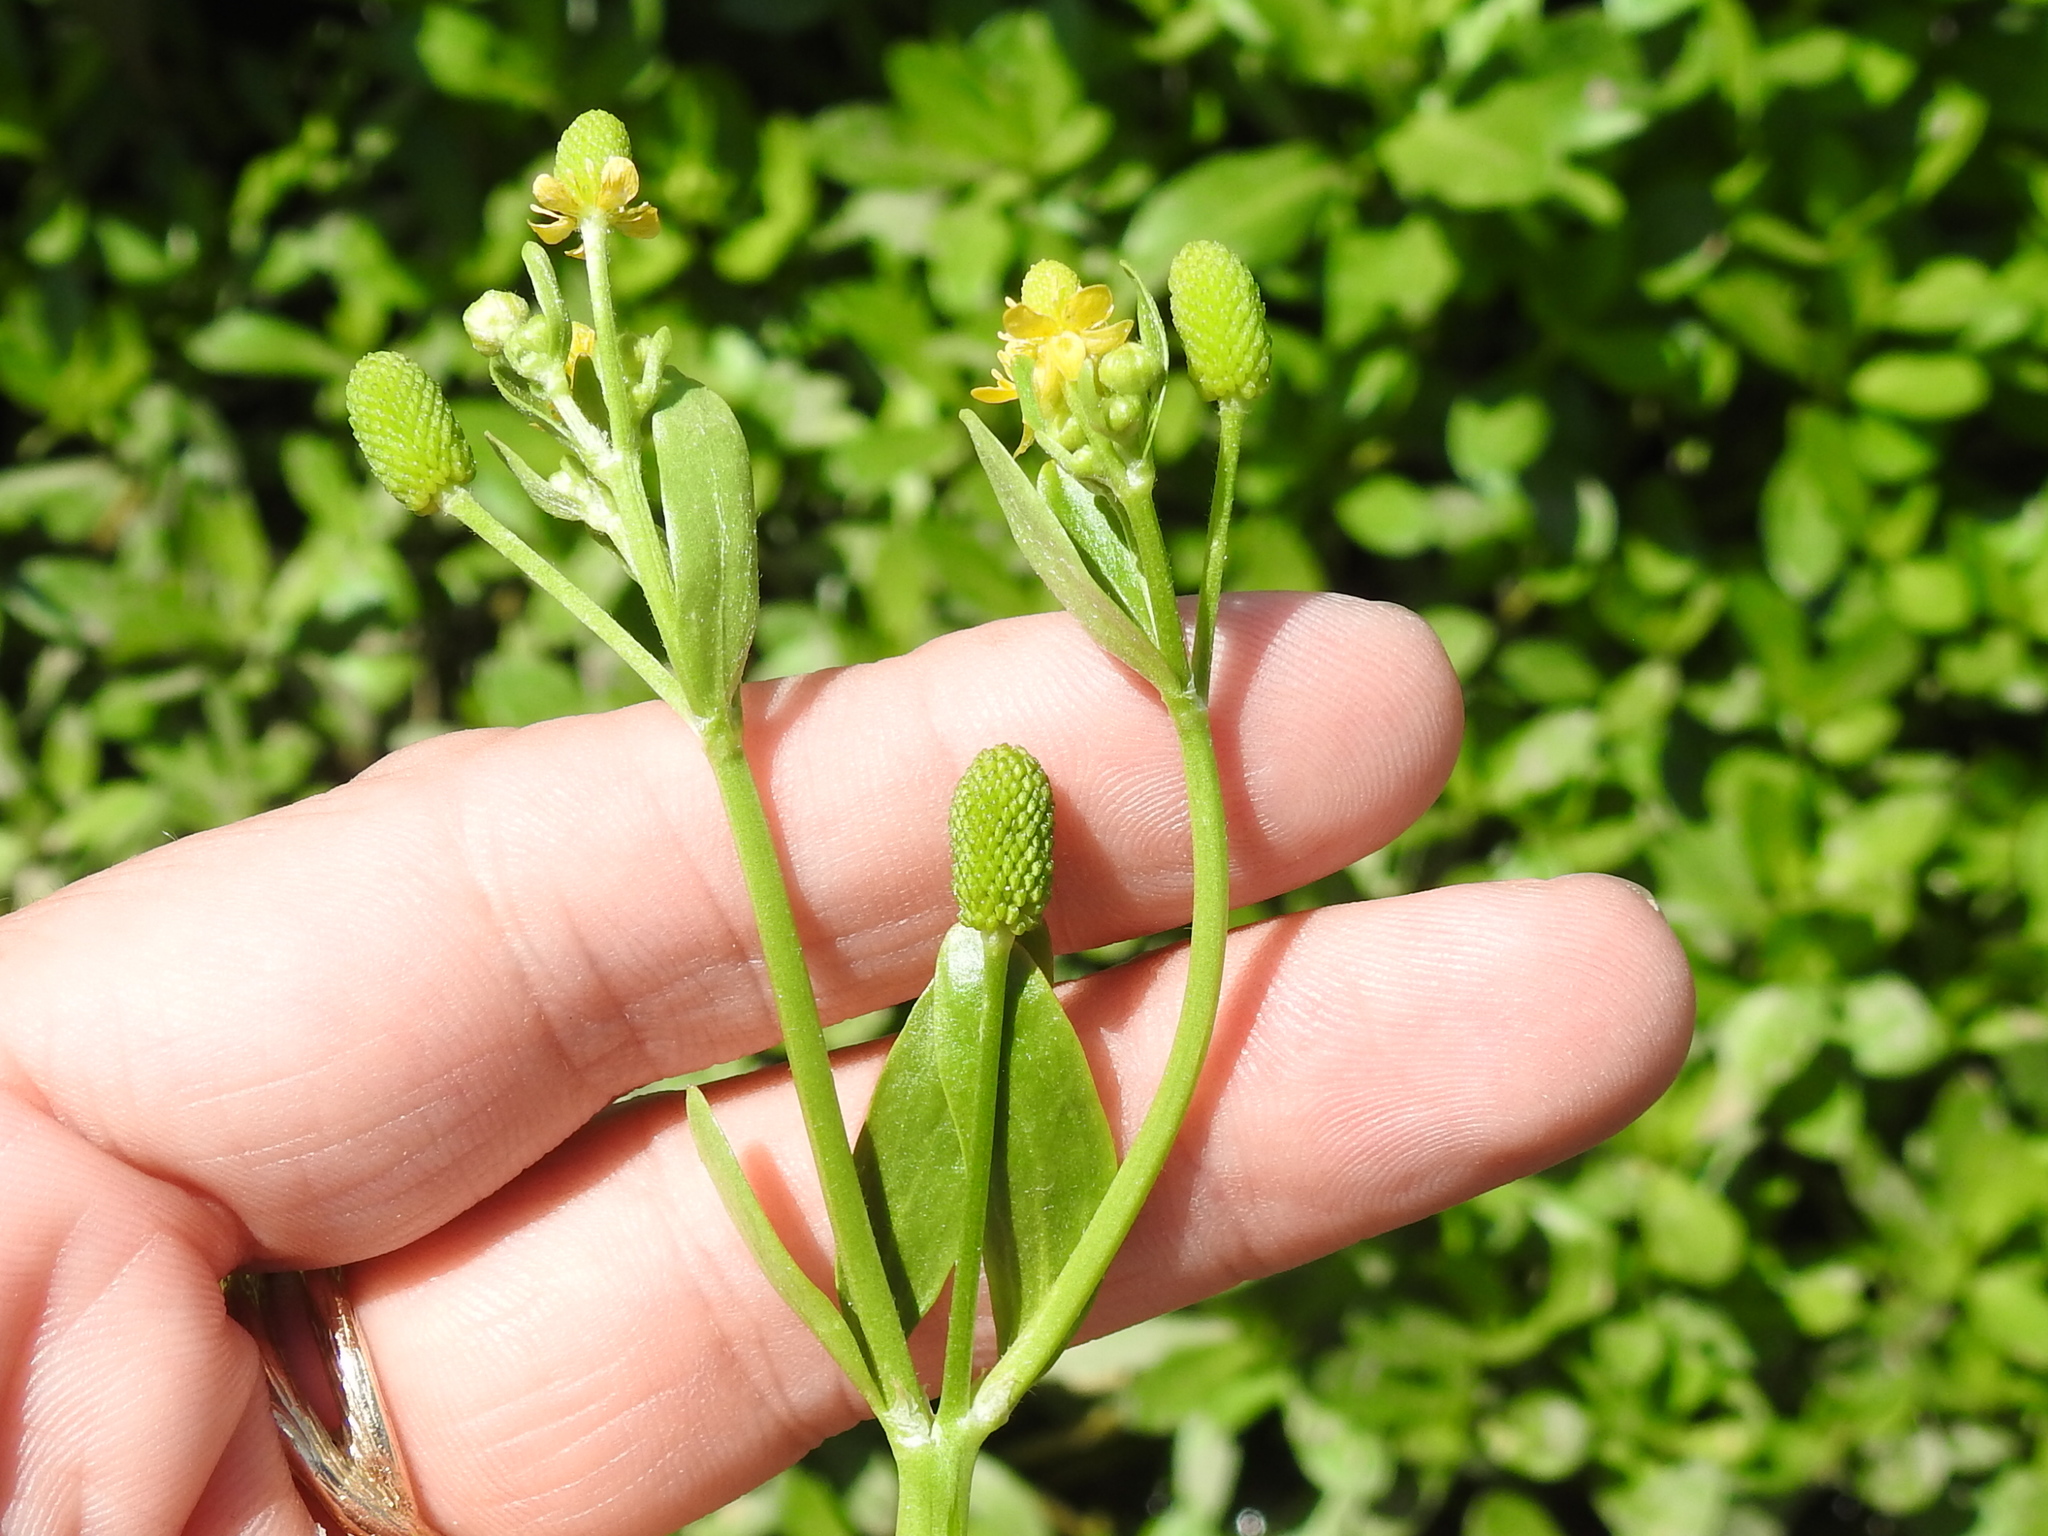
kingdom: Plantae
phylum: Tracheophyta
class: Magnoliopsida
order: Ranunculales
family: Ranunculaceae
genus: Ranunculus
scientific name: Ranunculus abortivus
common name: Early wood buttercup
